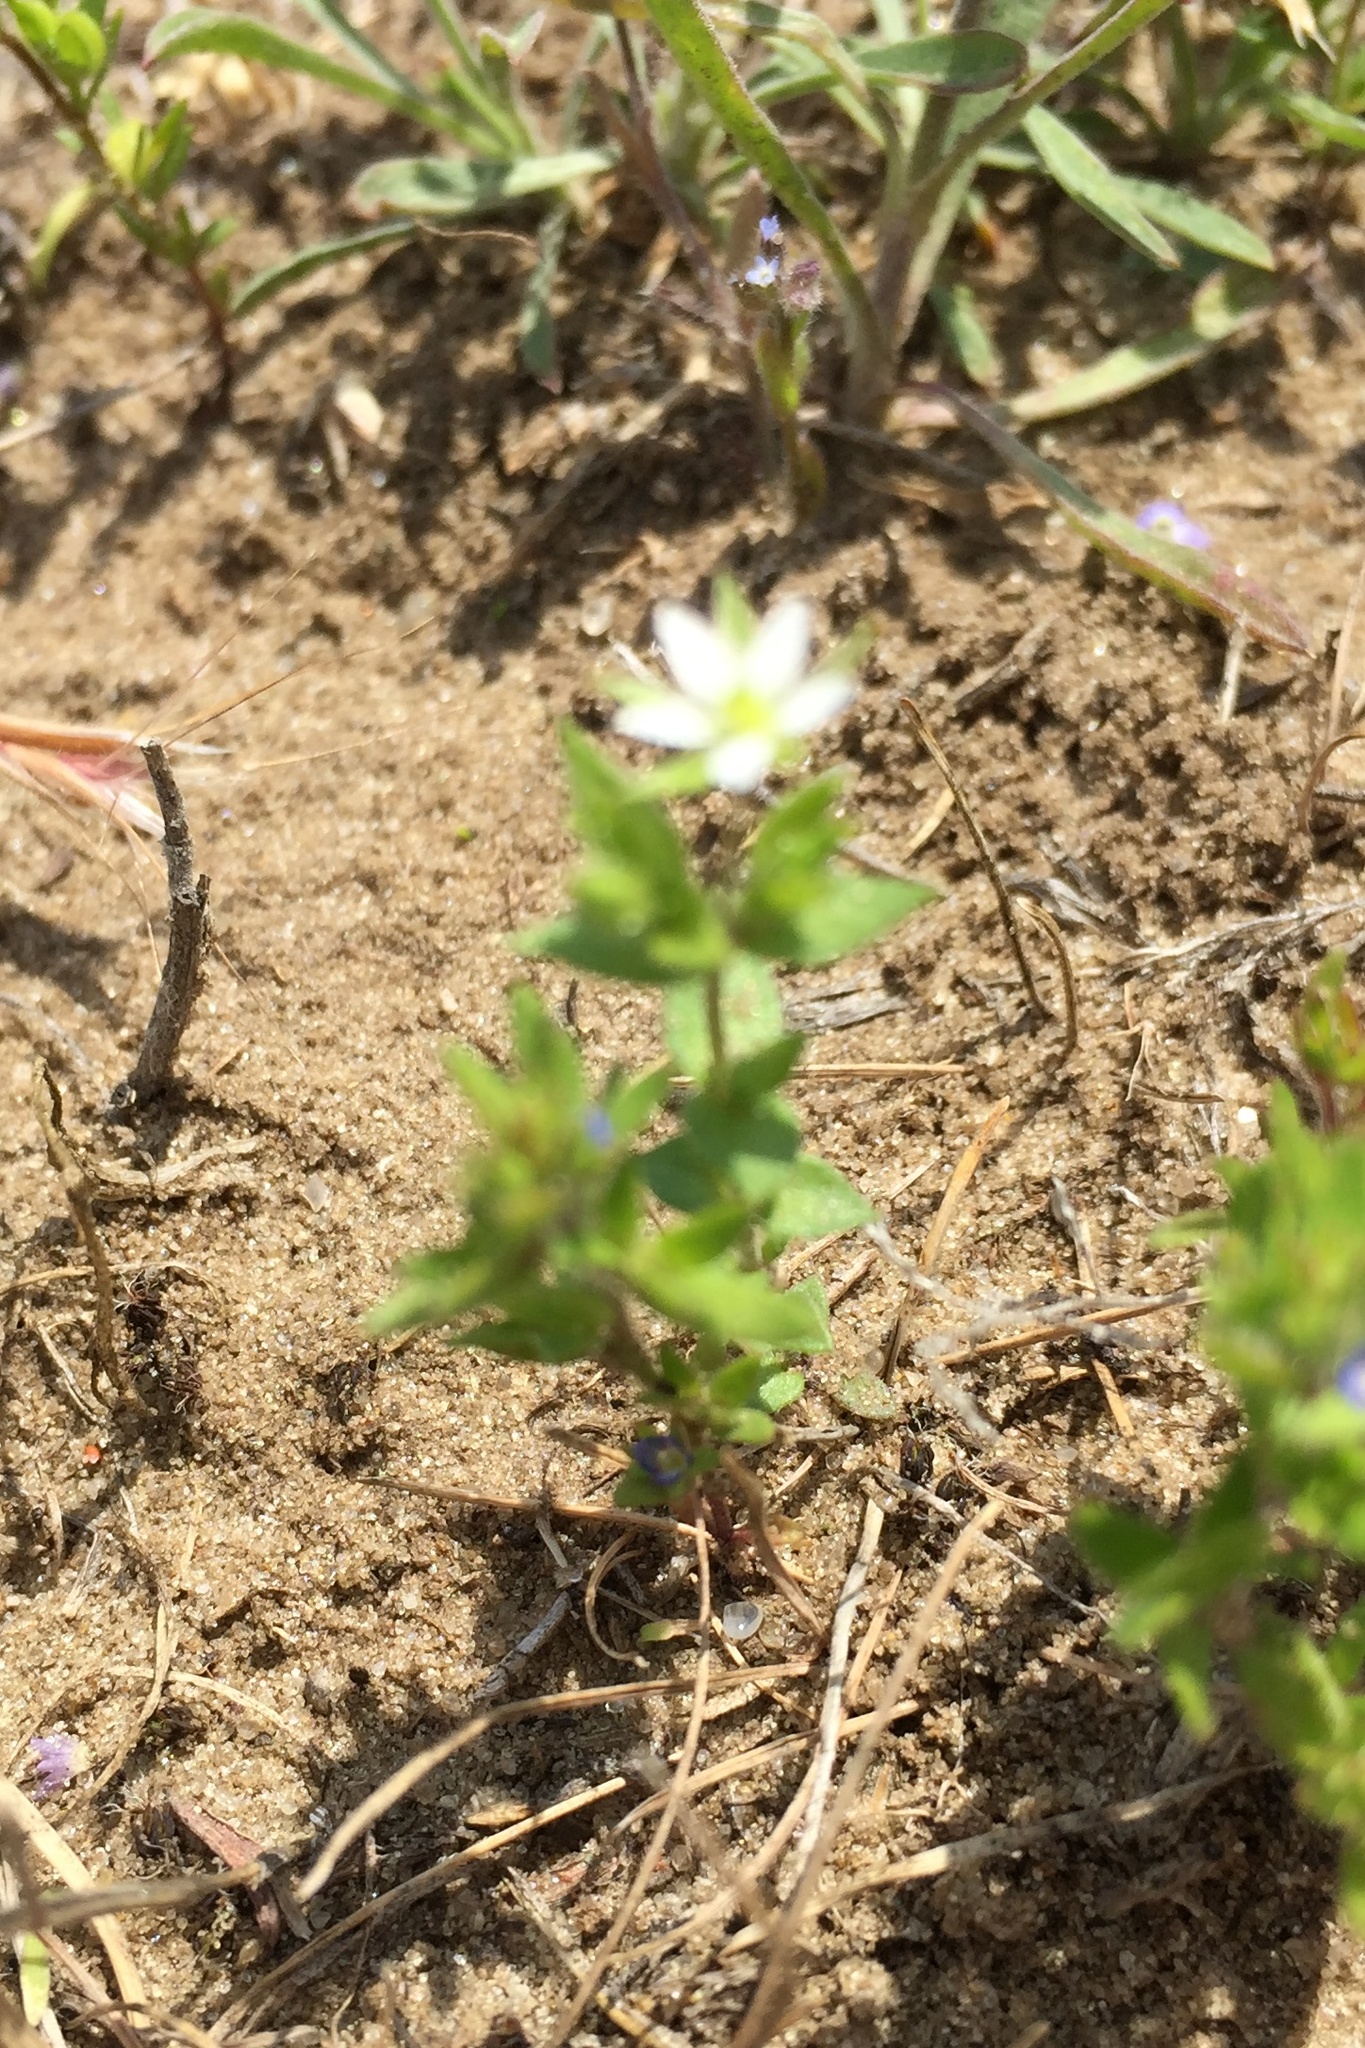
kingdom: Plantae
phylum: Tracheophyta
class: Magnoliopsida
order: Caryophyllales
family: Caryophyllaceae
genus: Arenaria
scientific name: Arenaria serpyllifolia
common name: Thyme-leaved sandwort
